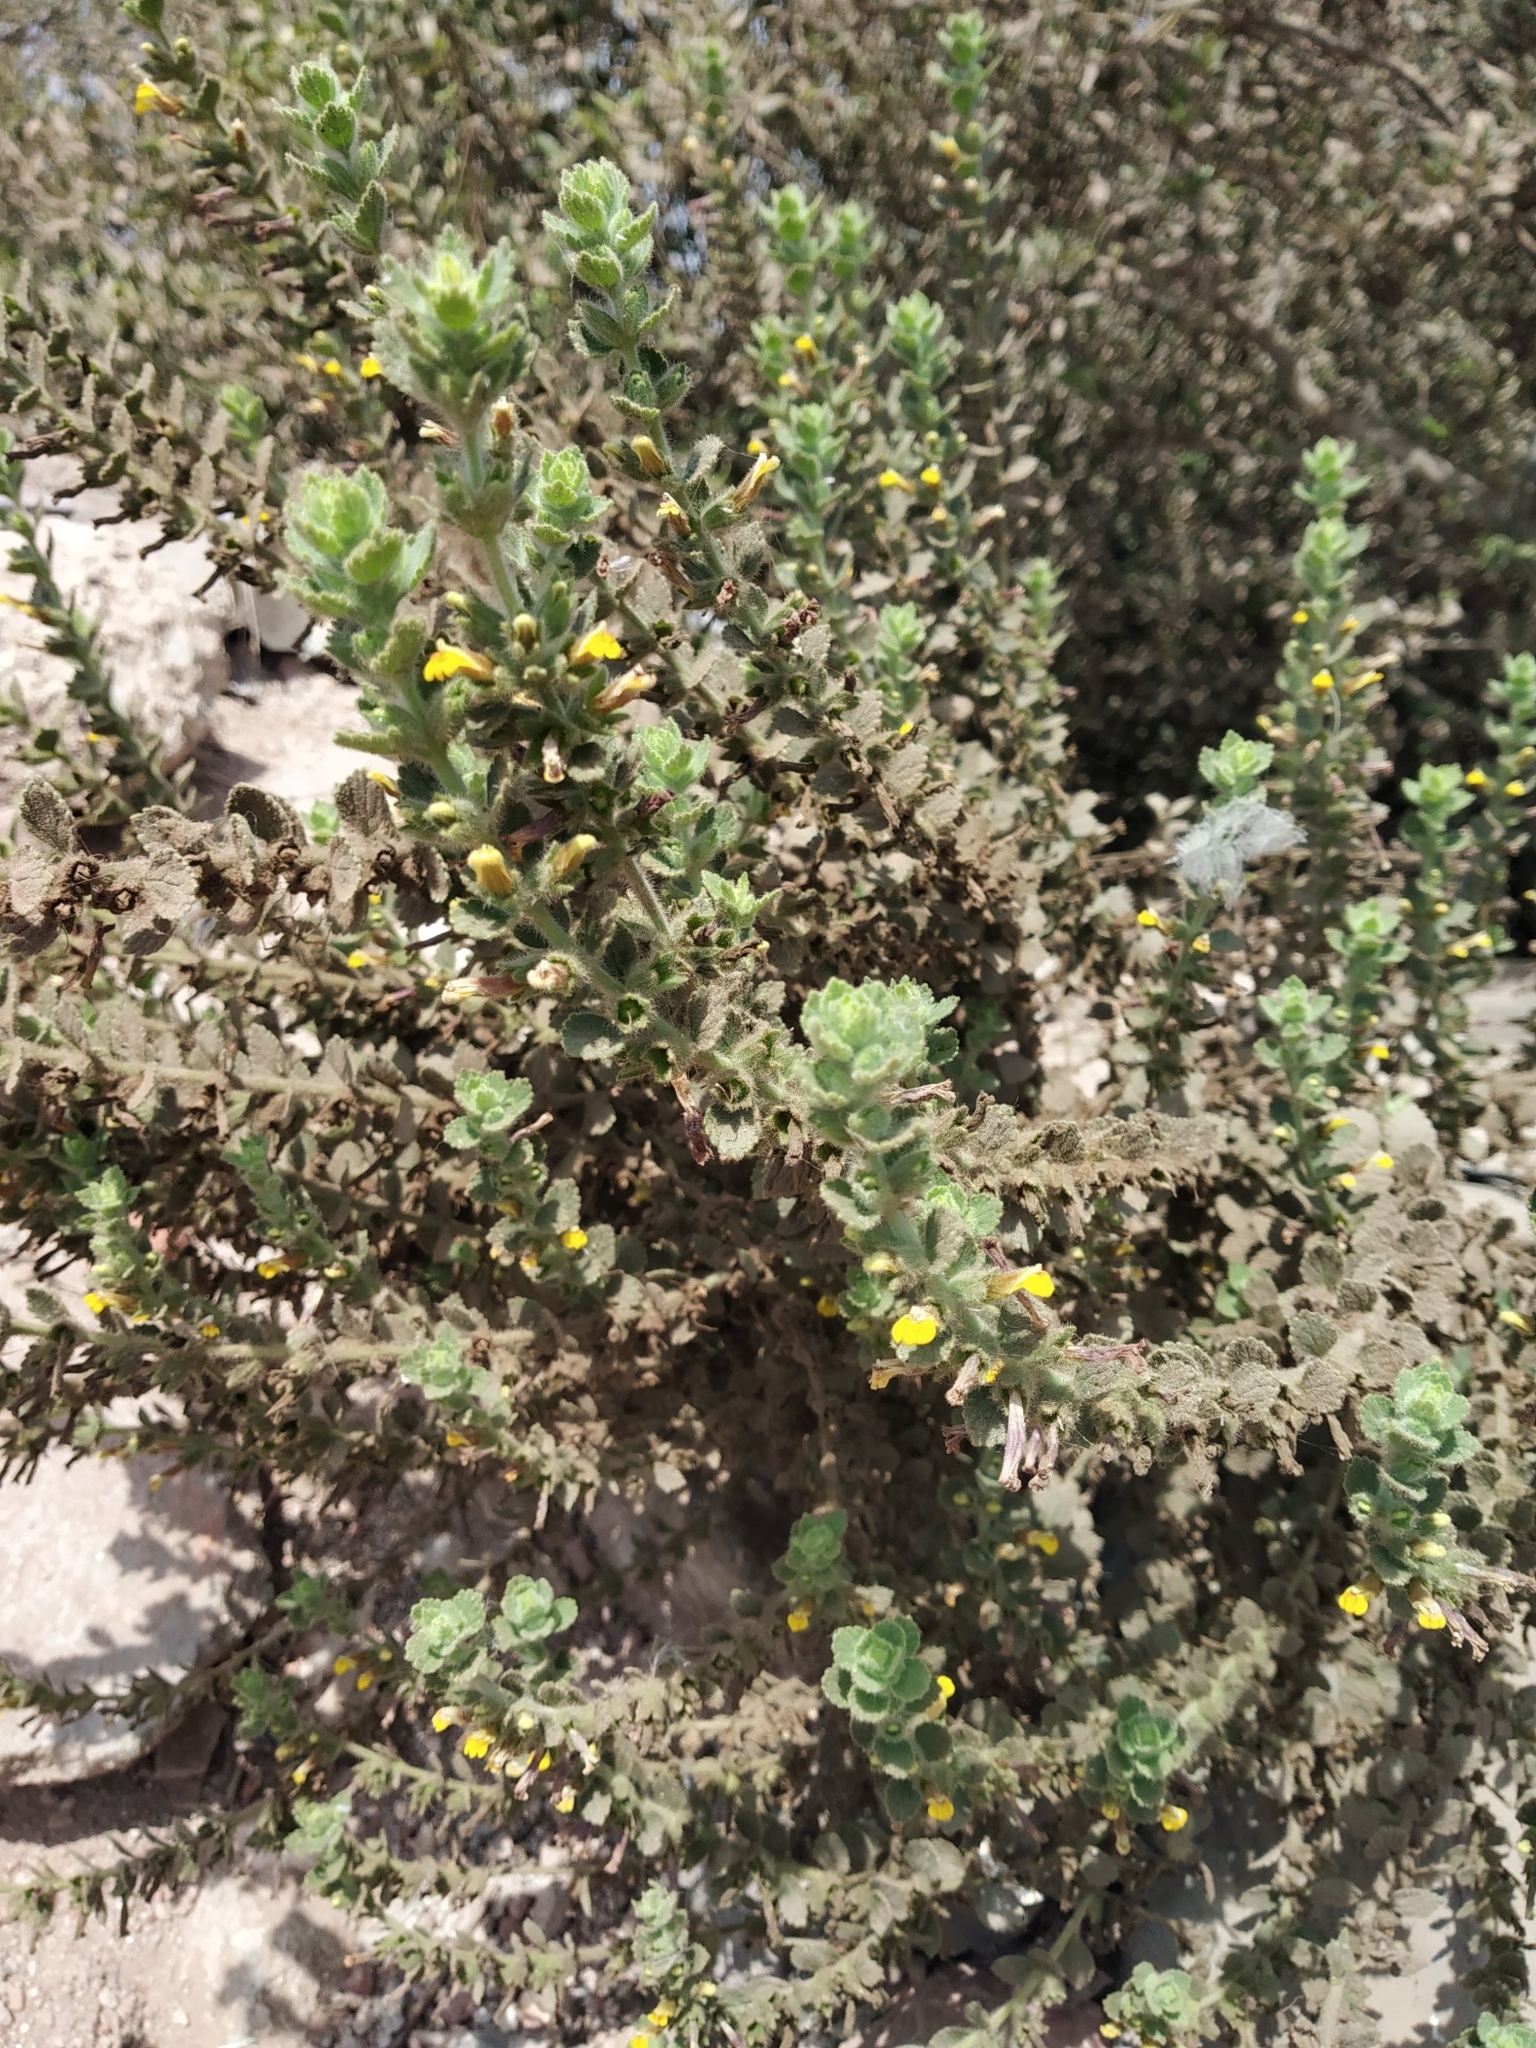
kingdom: Plantae
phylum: Tracheophyta
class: Magnoliopsida
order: Lamiales
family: Orobanchaceae
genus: Lindenbergia
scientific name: Lindenbergia indica
